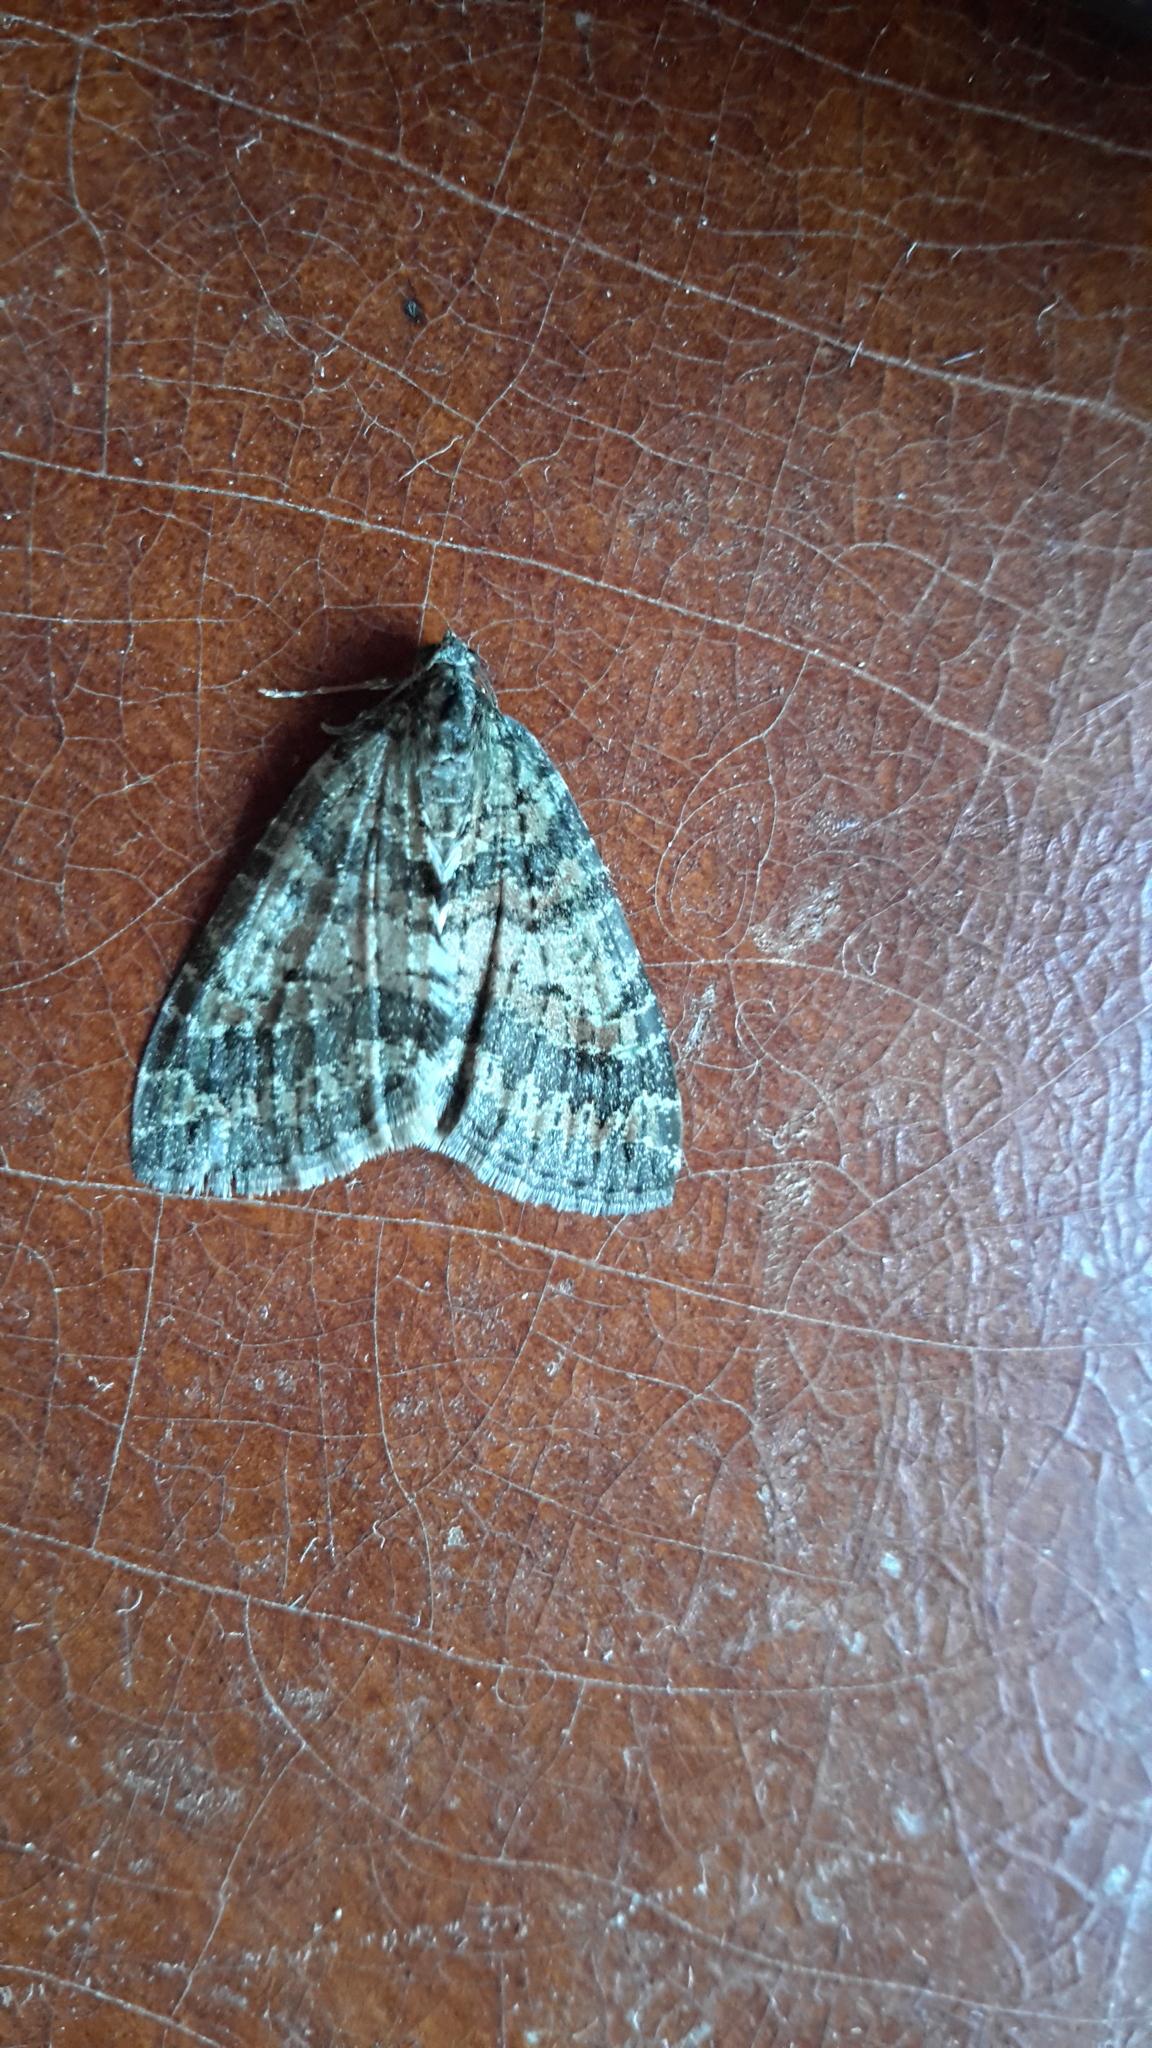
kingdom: Animalia
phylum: Arthropoda
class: Insecta
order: Lepidoptera
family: Geometridae
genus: Hydriomena
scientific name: Hydriomena nubilofasciata
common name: Oak winter highflier moth
